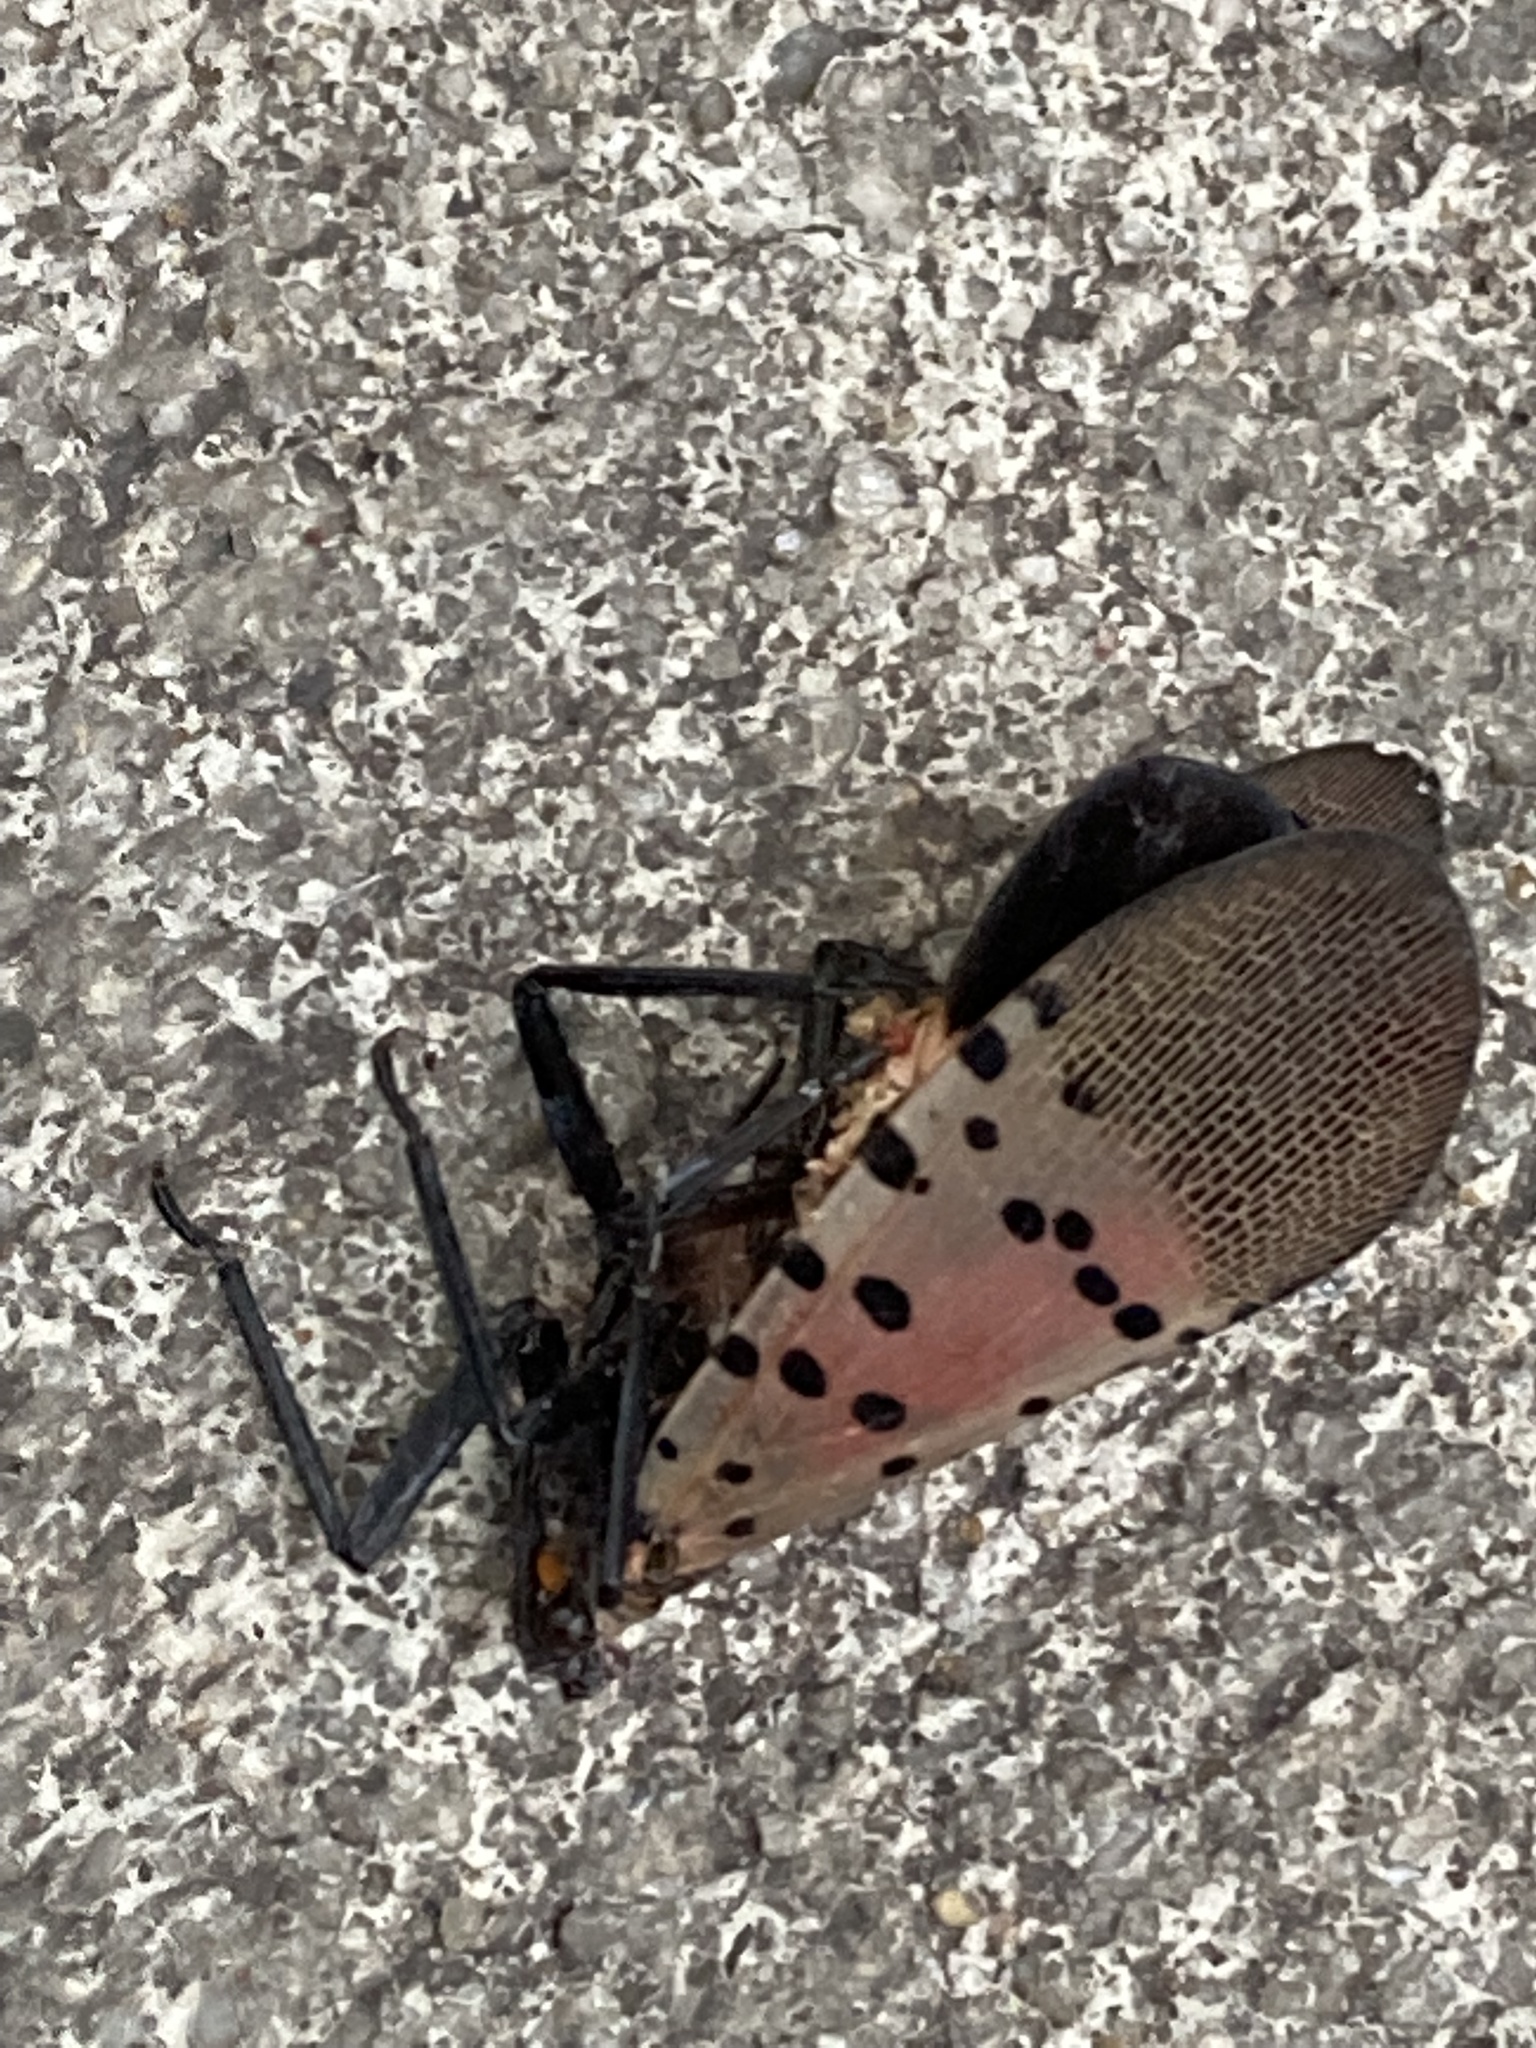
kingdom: Animalia
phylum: Arthropoda
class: Insecta
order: Hemiptera
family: Fulgoridae
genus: Lycorma
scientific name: Lycorma delicatula
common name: Spotted lanternfly
